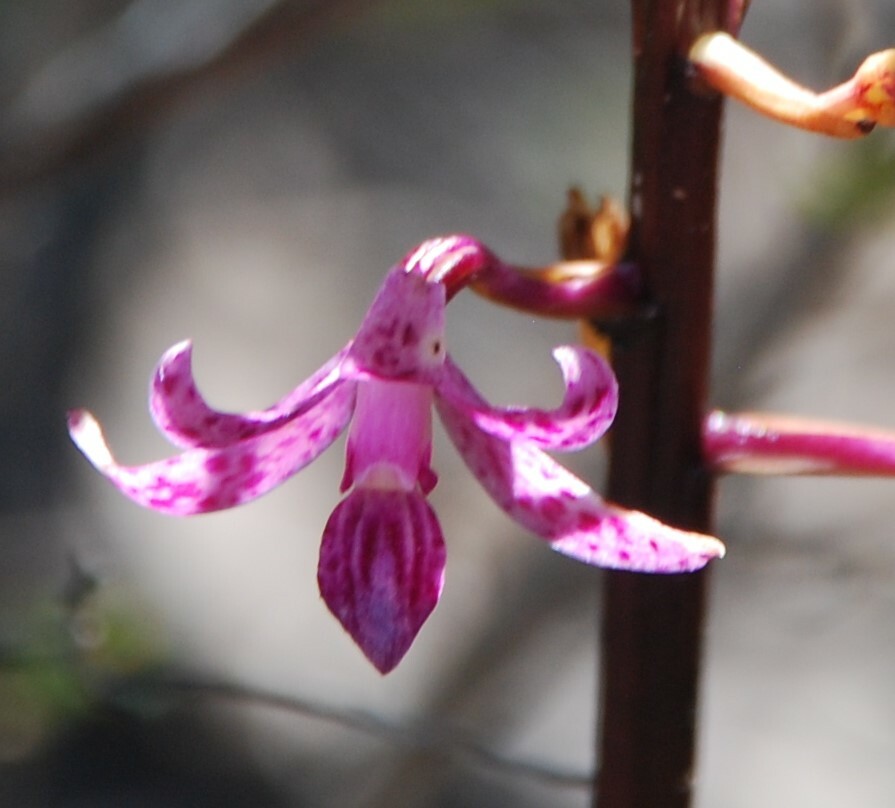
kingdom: Plantae
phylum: Tracheophyta
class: Liliopsida
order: Asparagales
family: Orchidaceae
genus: Dipodium
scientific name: Dipodium squamatum
